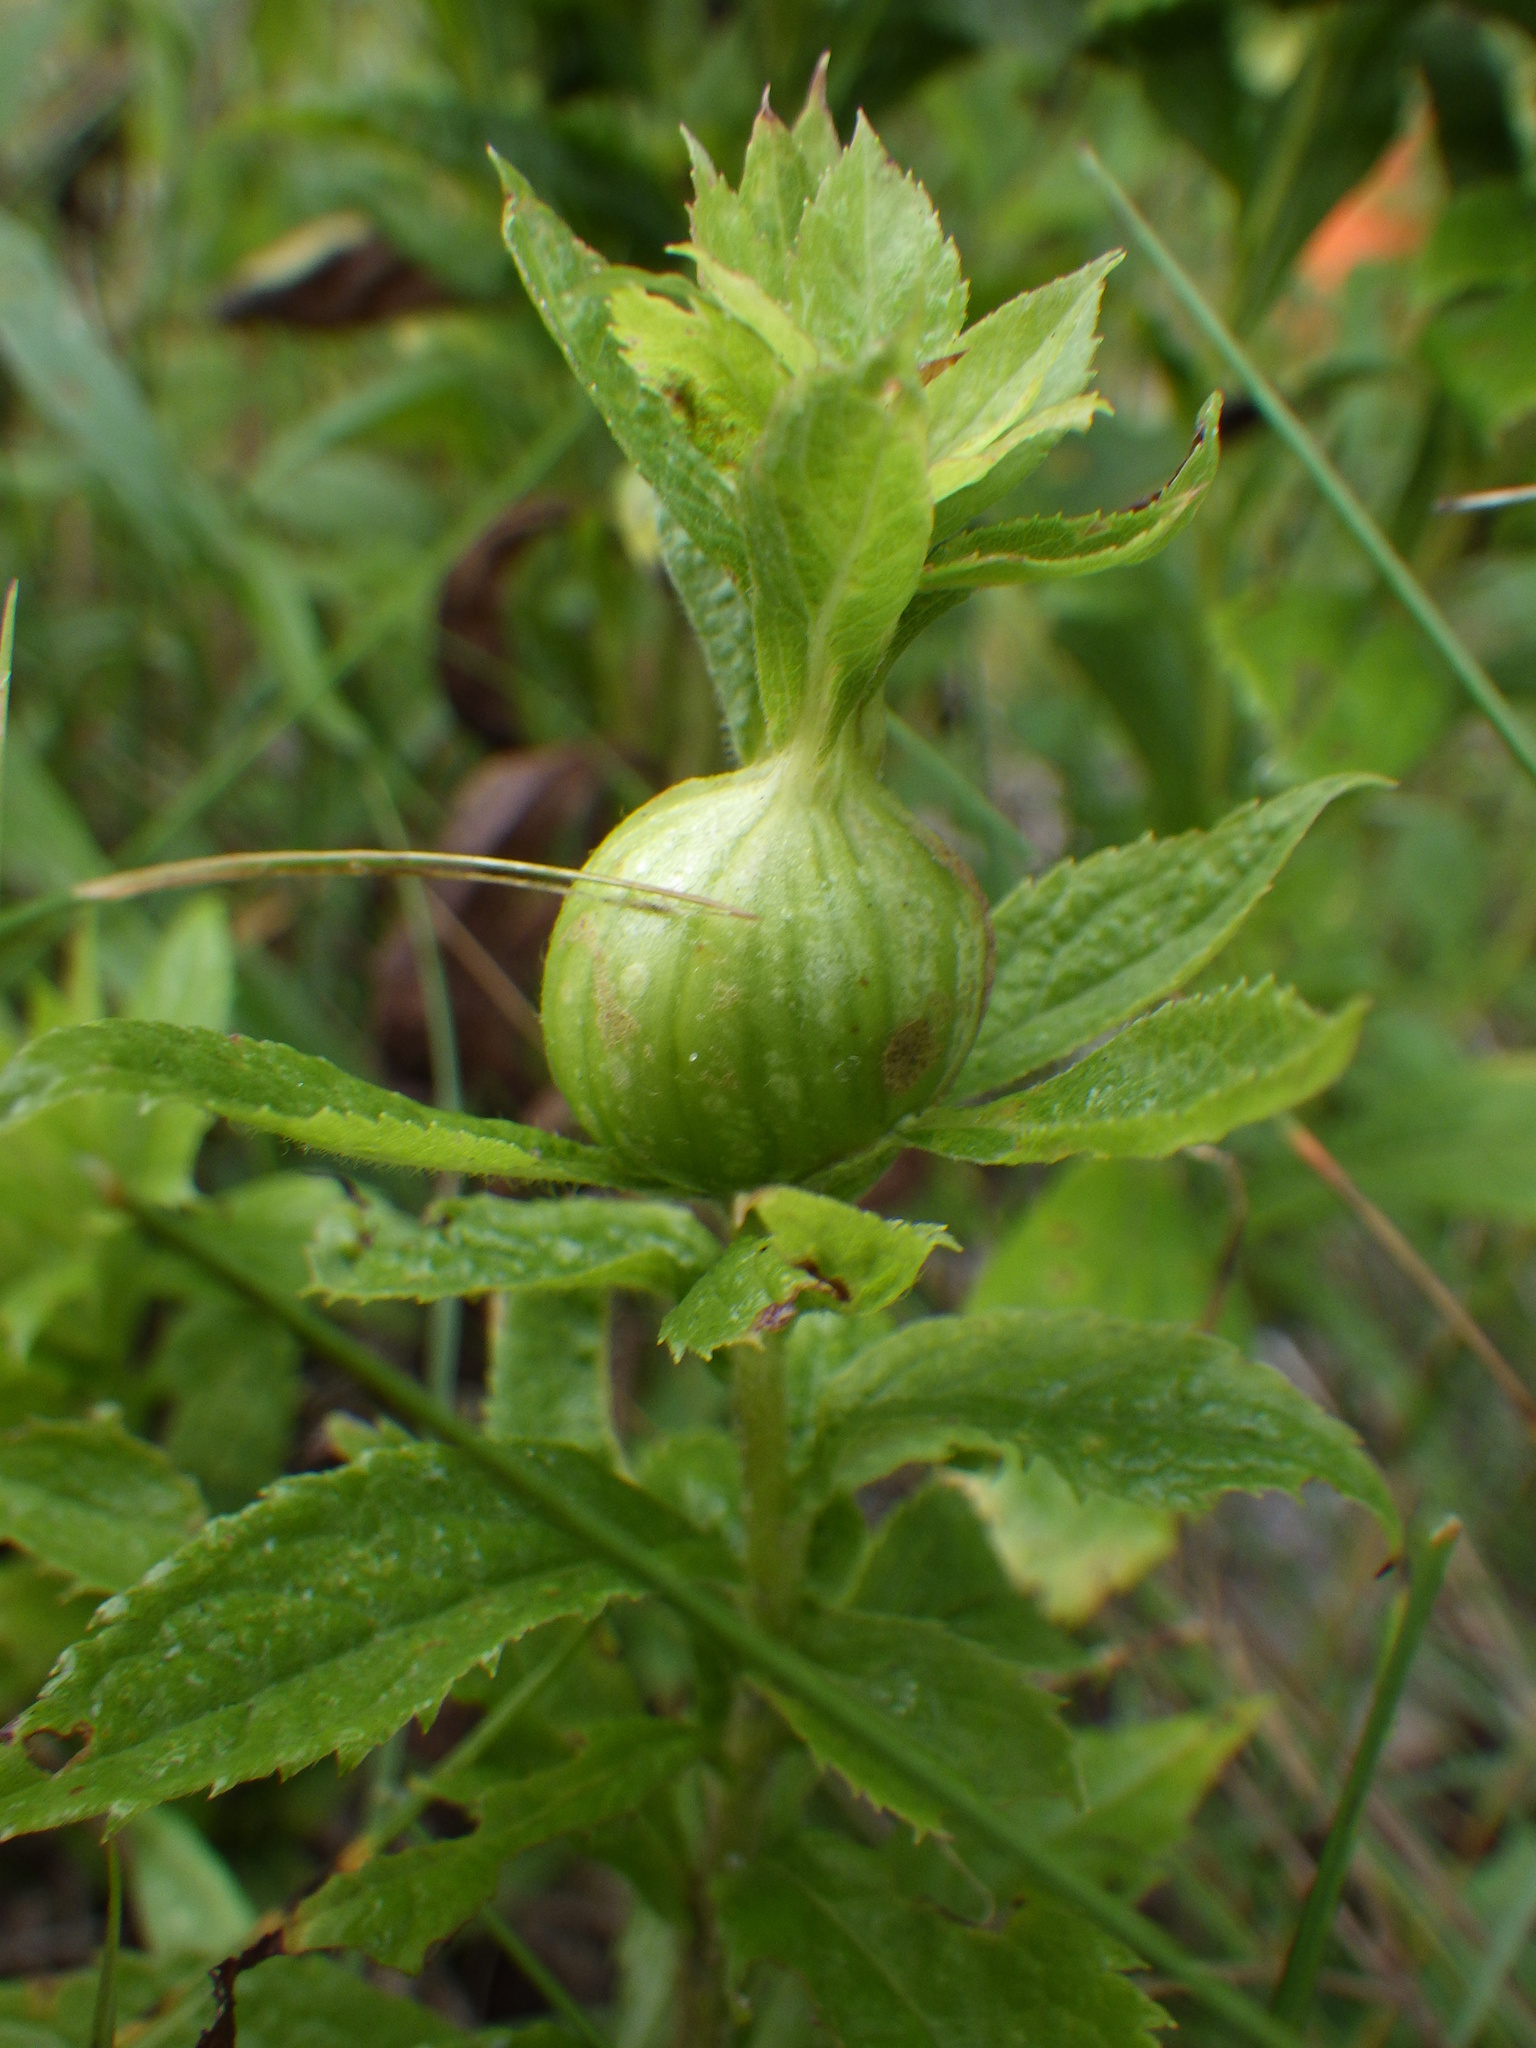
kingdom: Animalia
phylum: Arthropoda
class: Insecta
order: Diptera
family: Tephritidae
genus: Eurosta
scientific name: Eurosta solidaginis
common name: Goldenrod gall fly
